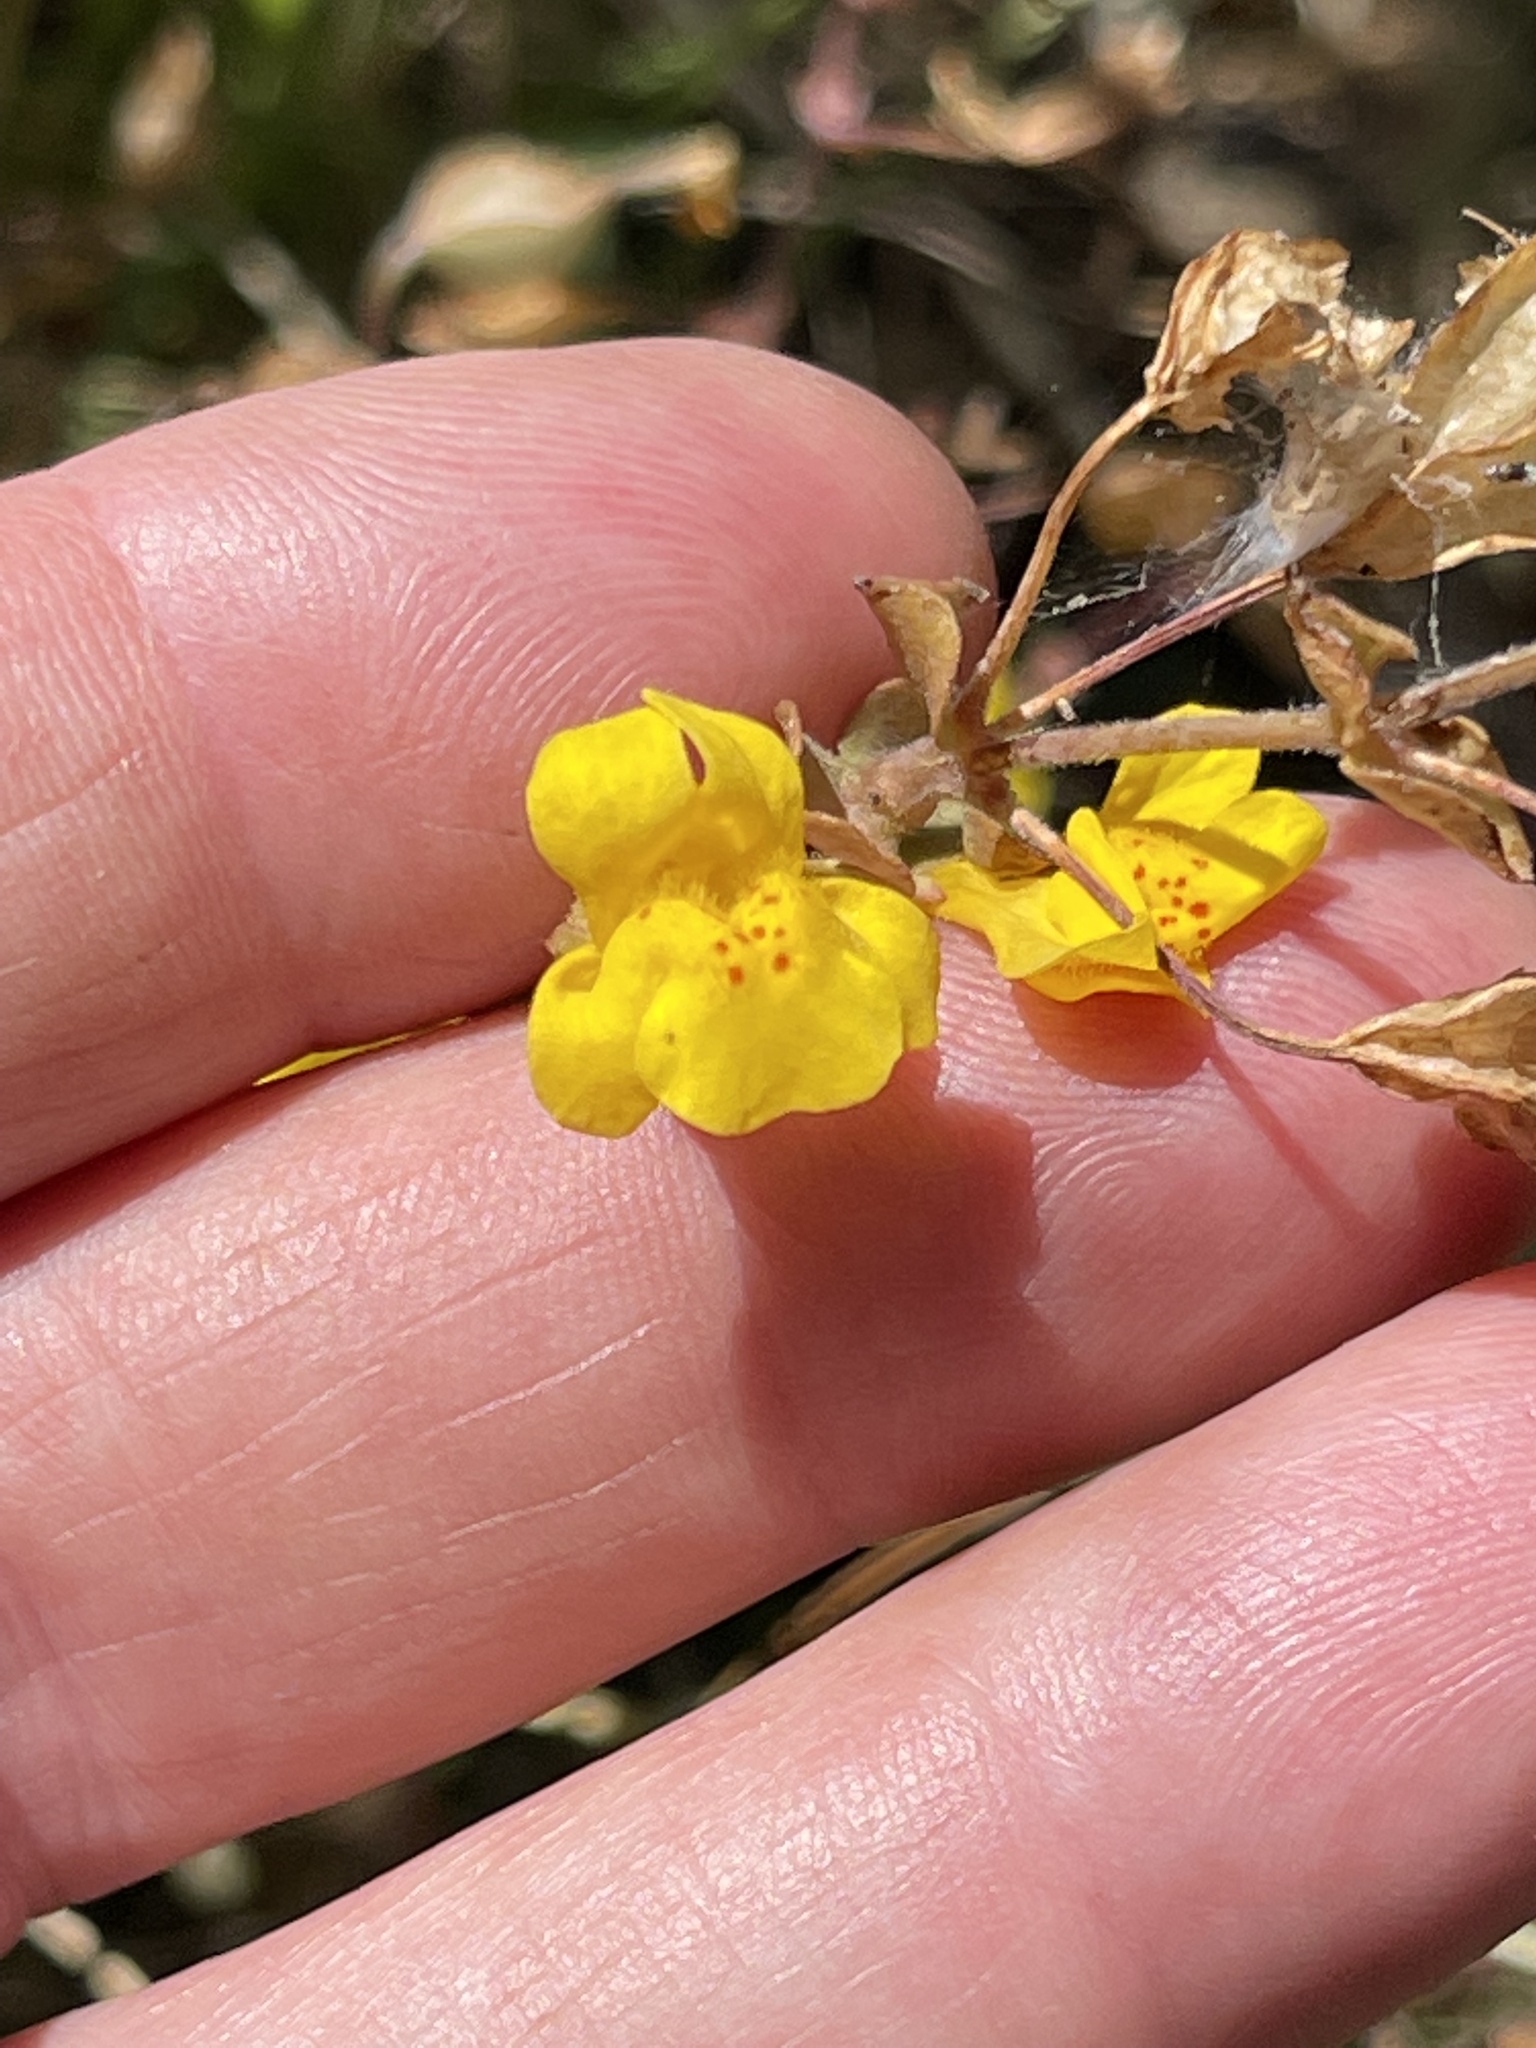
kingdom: Plantae
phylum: Tracheophyta
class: Magnoliopsida
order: Lamiales
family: Phrymaceae
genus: Erythranthe
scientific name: Erythranthe guttata
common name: Monkeyflower
